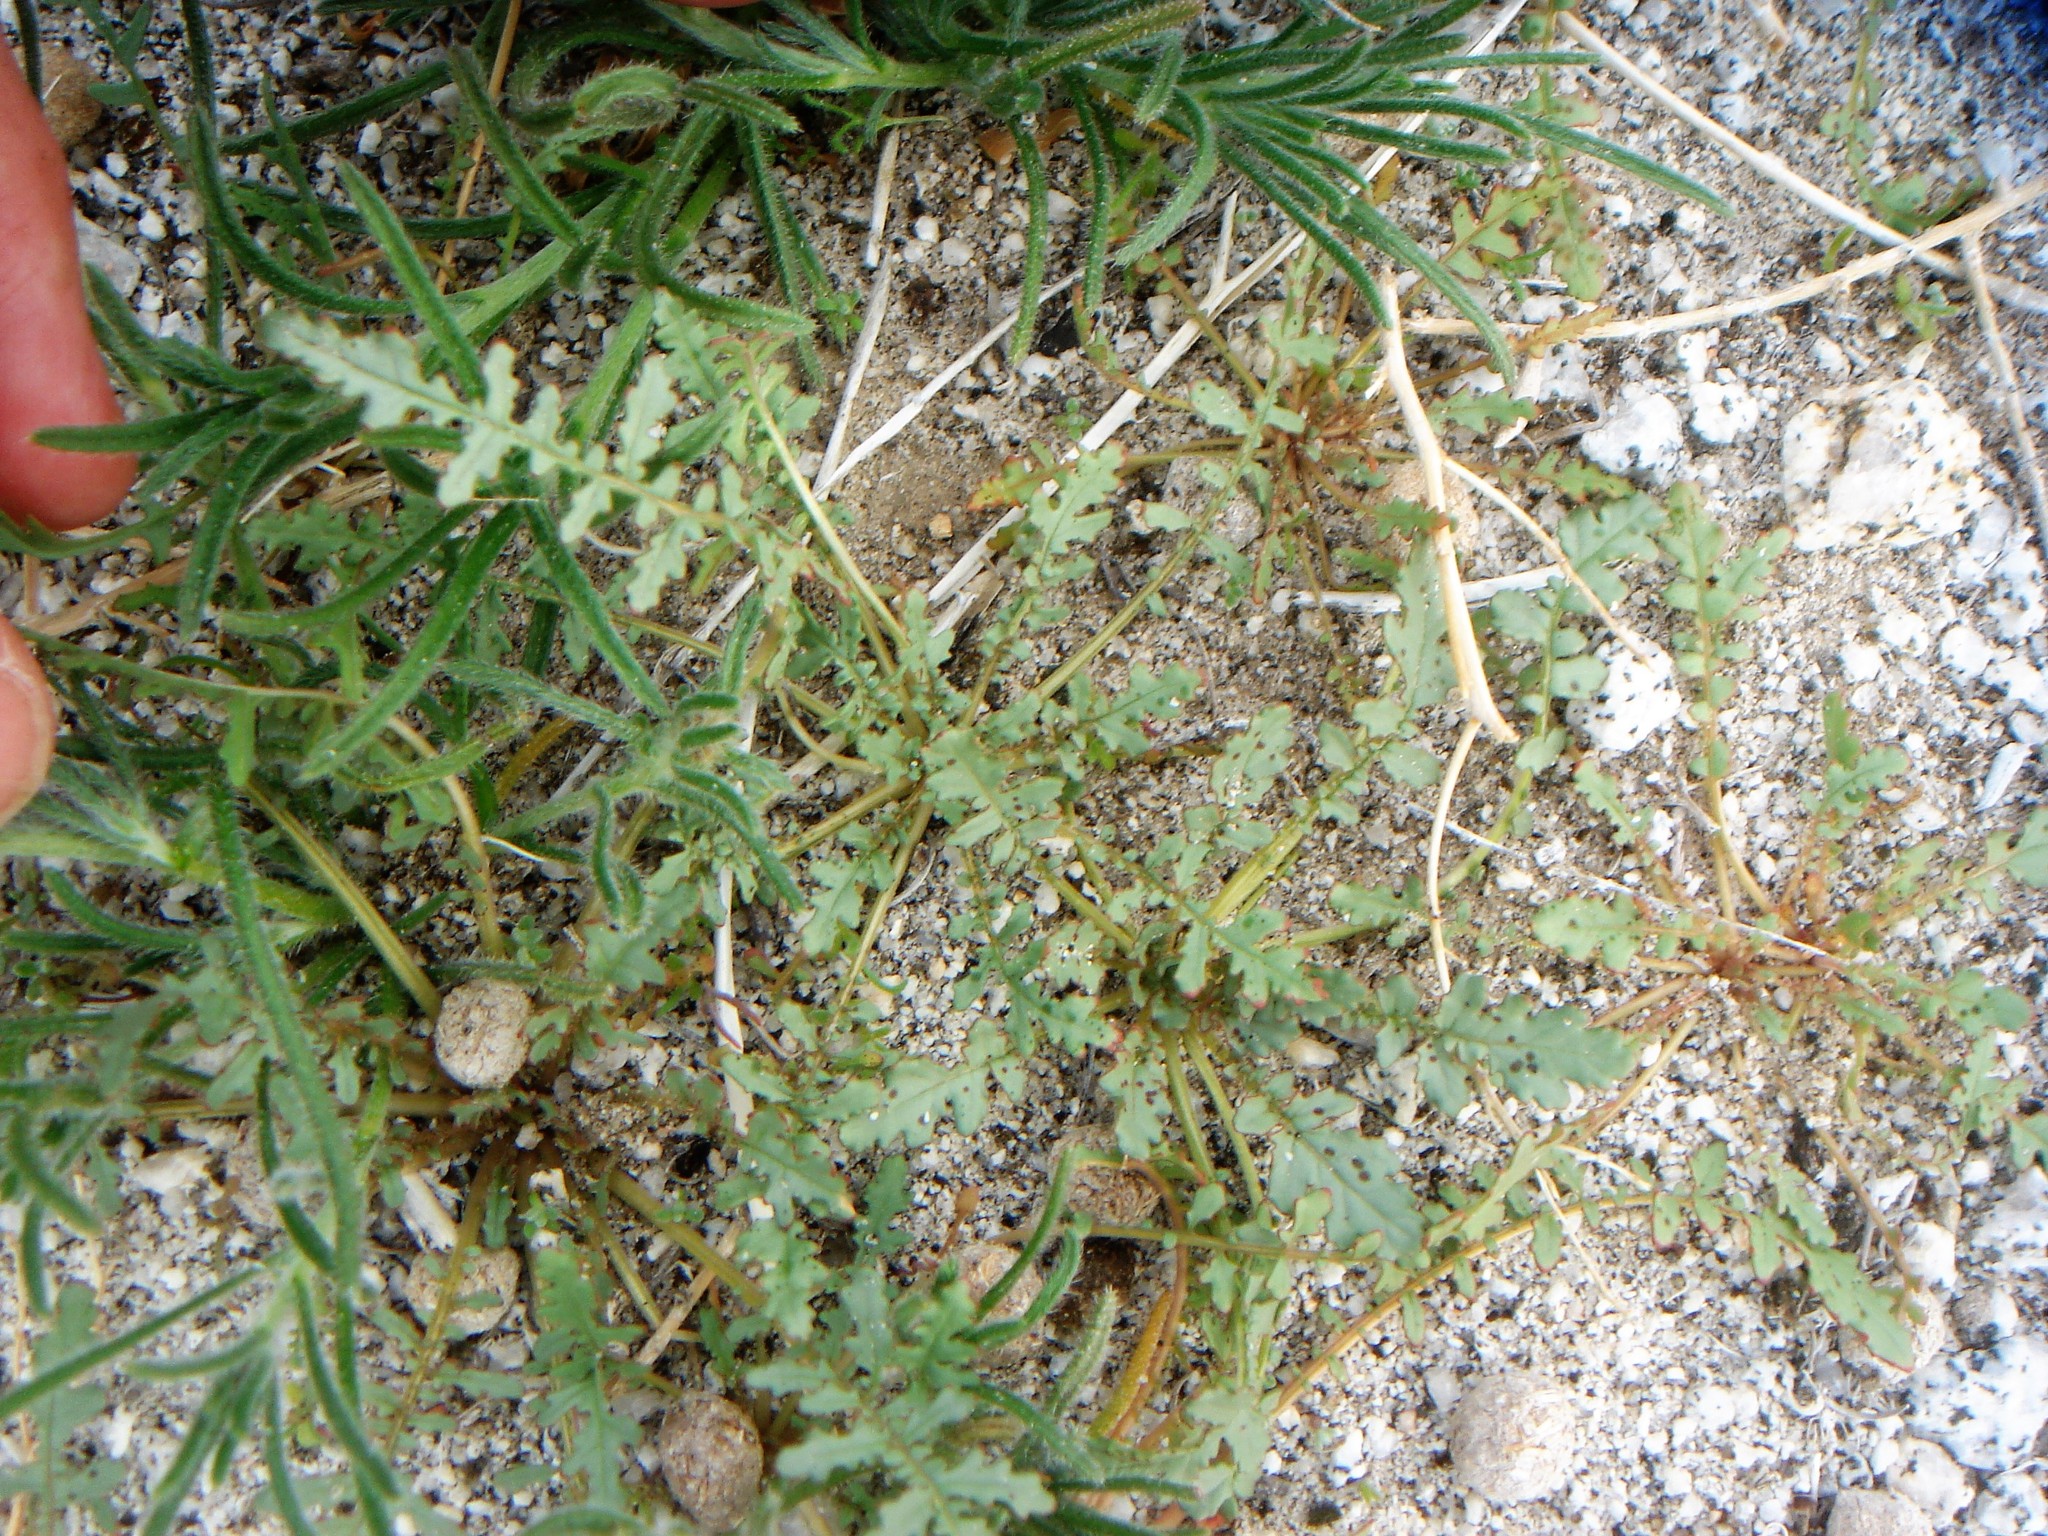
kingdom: Plantae
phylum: Tracheophyta
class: Magnoliopsida
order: Myrtales
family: Onagraceae
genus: Chylismia
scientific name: Chylismia claviformis
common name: Browneyes
